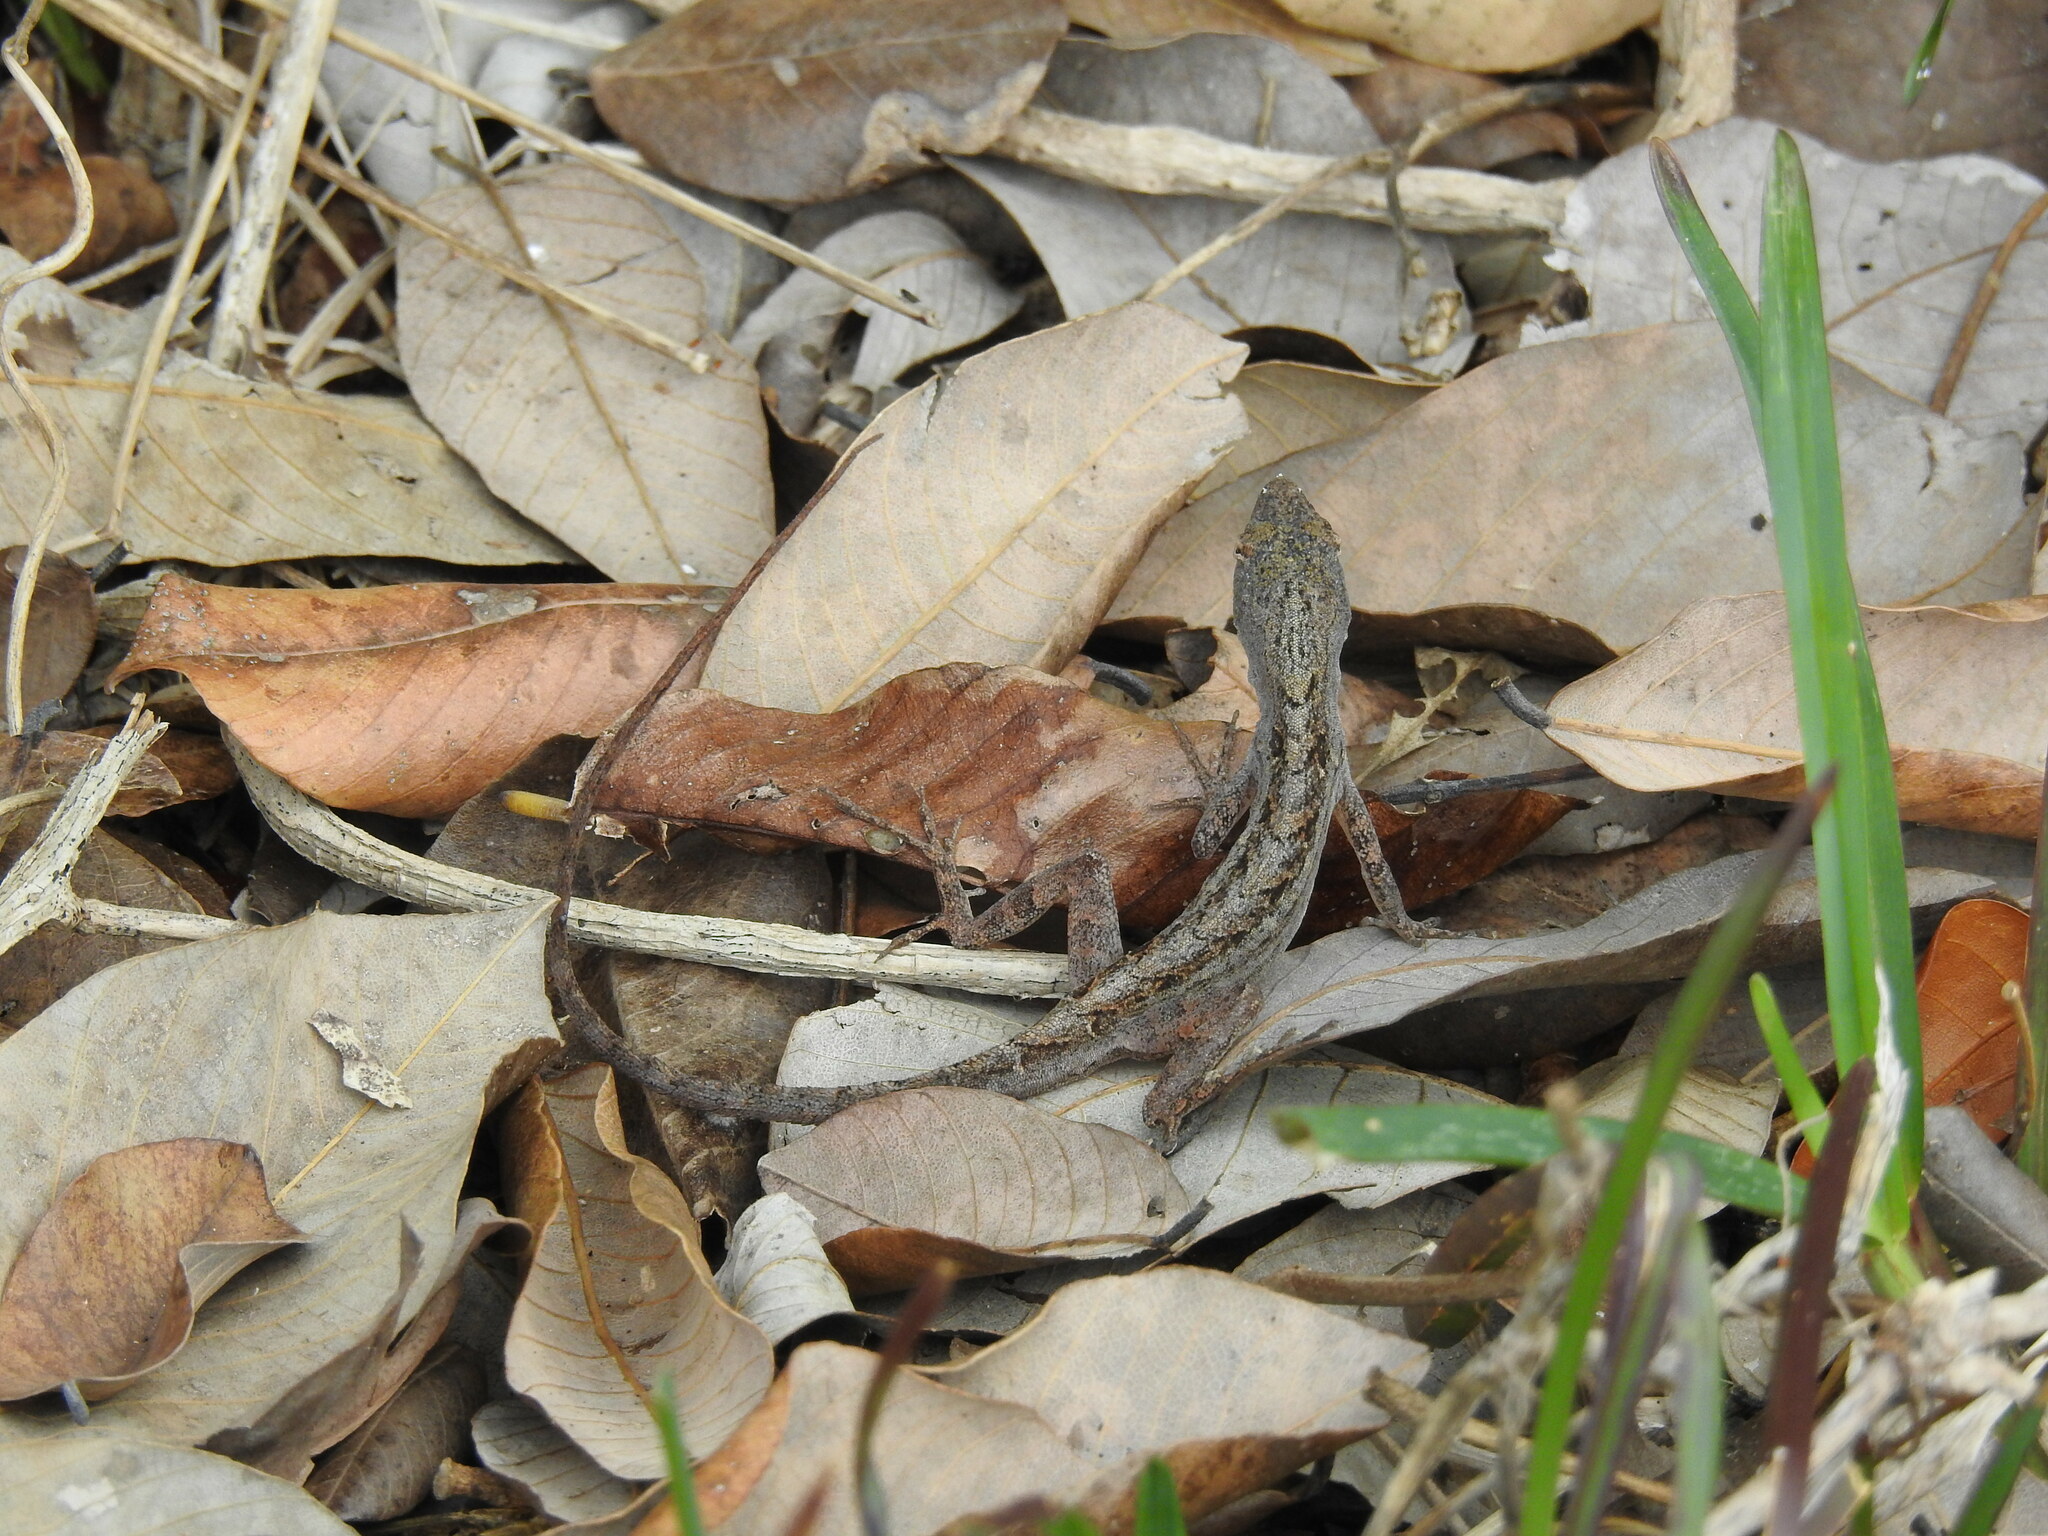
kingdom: Animalia
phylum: Chordata
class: Squamata
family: Dactyloidae
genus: Anolis
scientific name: Anolis sagrei
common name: Brown anole
